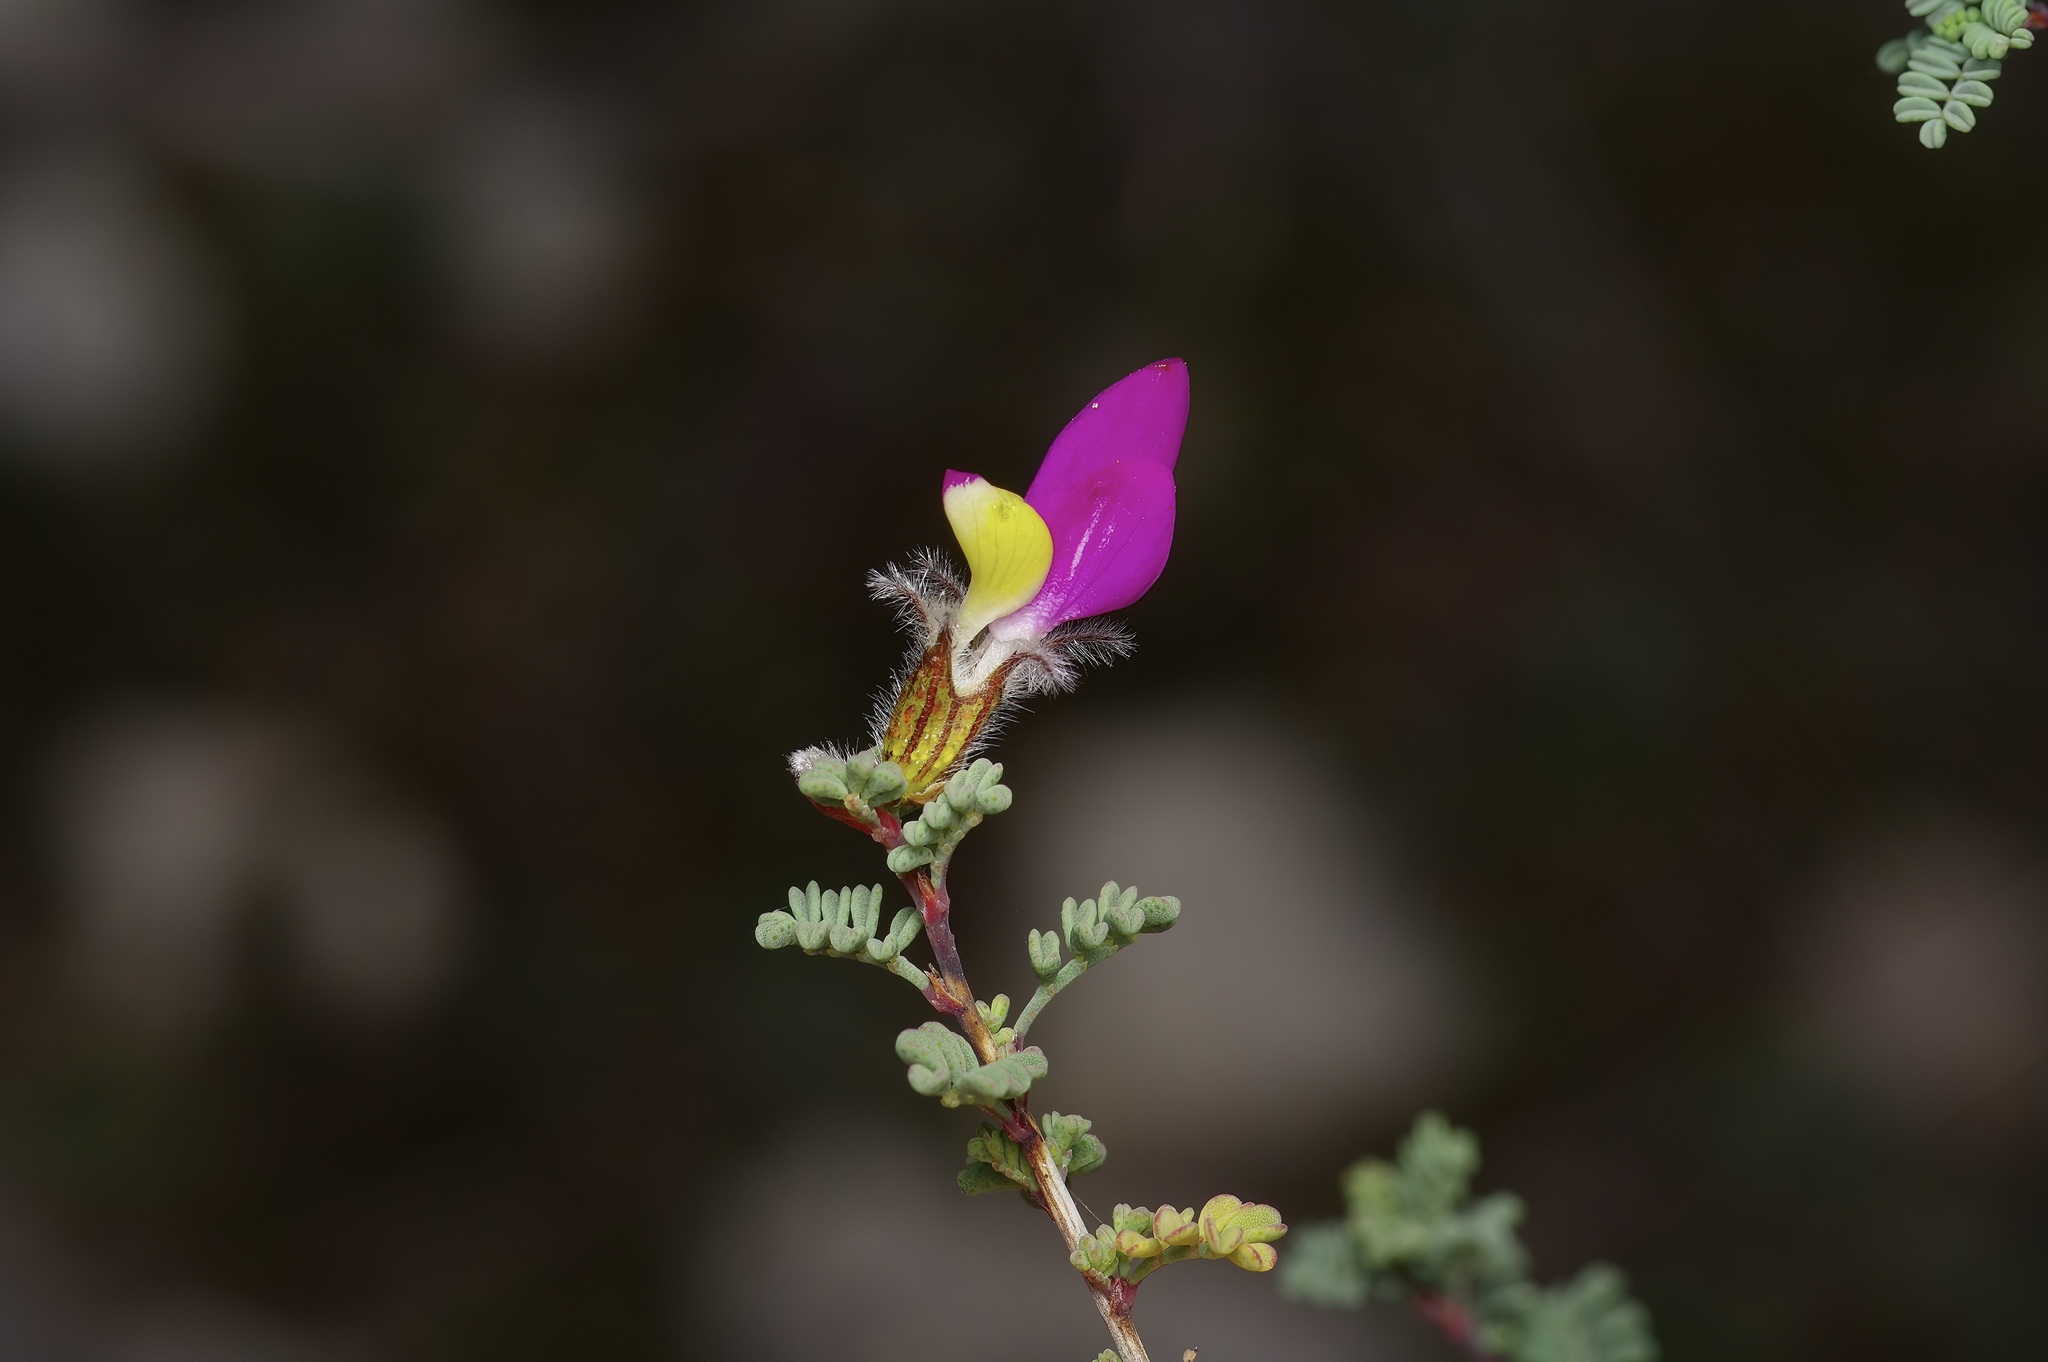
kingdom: Plantae
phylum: Tracheophyta
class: Magnoliopsida
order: Fabales
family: Fabaceae
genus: Dalea
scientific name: Dalea formosa
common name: Feather-plume dalea
